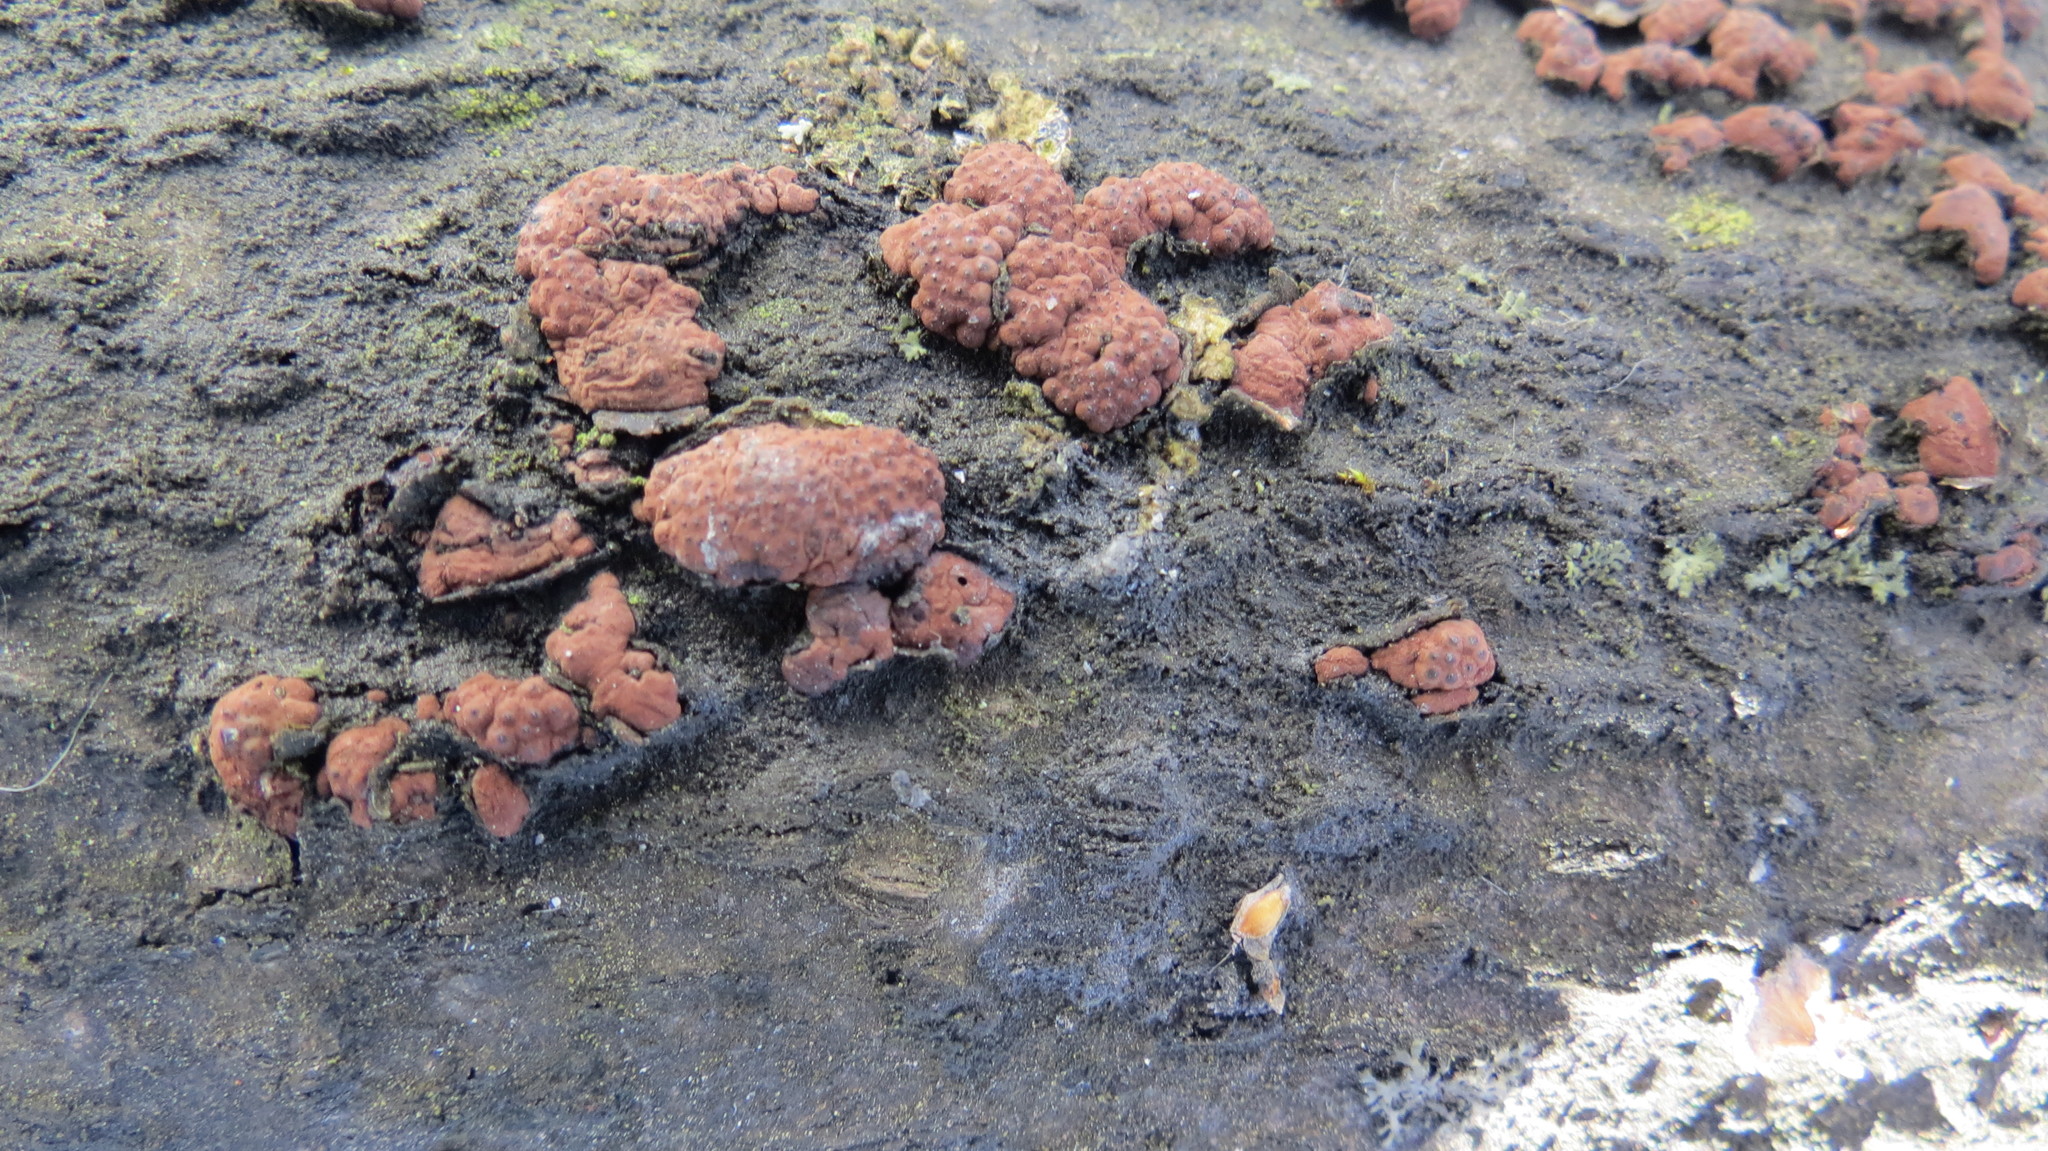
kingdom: Fungi
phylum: Ascomycota
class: Sordariomycetes
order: Xylariales
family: Hypoxylaceae
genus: Jackrogersella
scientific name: Jackrogersella multiformis
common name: Birch woodwart
